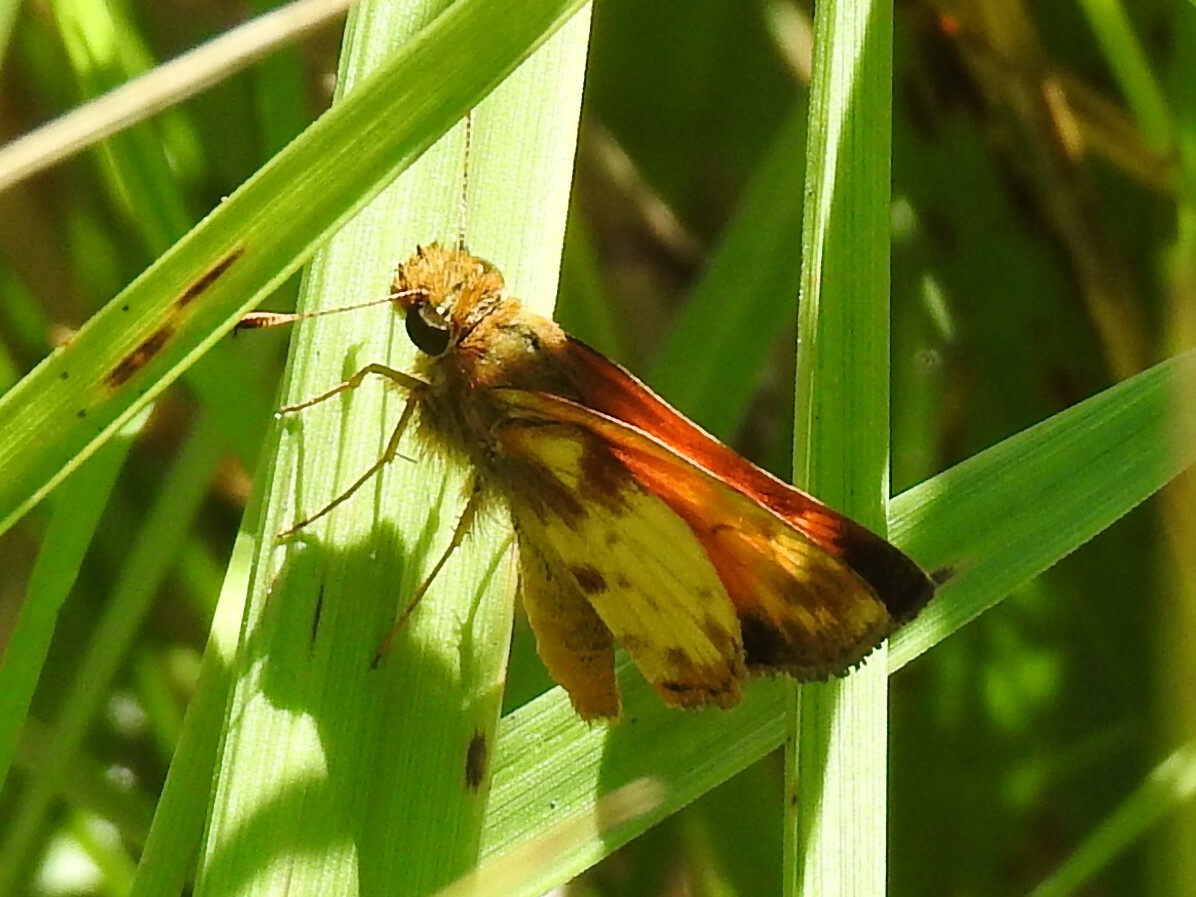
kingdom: Animalia
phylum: Arthropoda
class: Insecta
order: Lepidoptera
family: Hesperiidae
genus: Lon
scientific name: Lon zabulon
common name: Zabulon skipper
